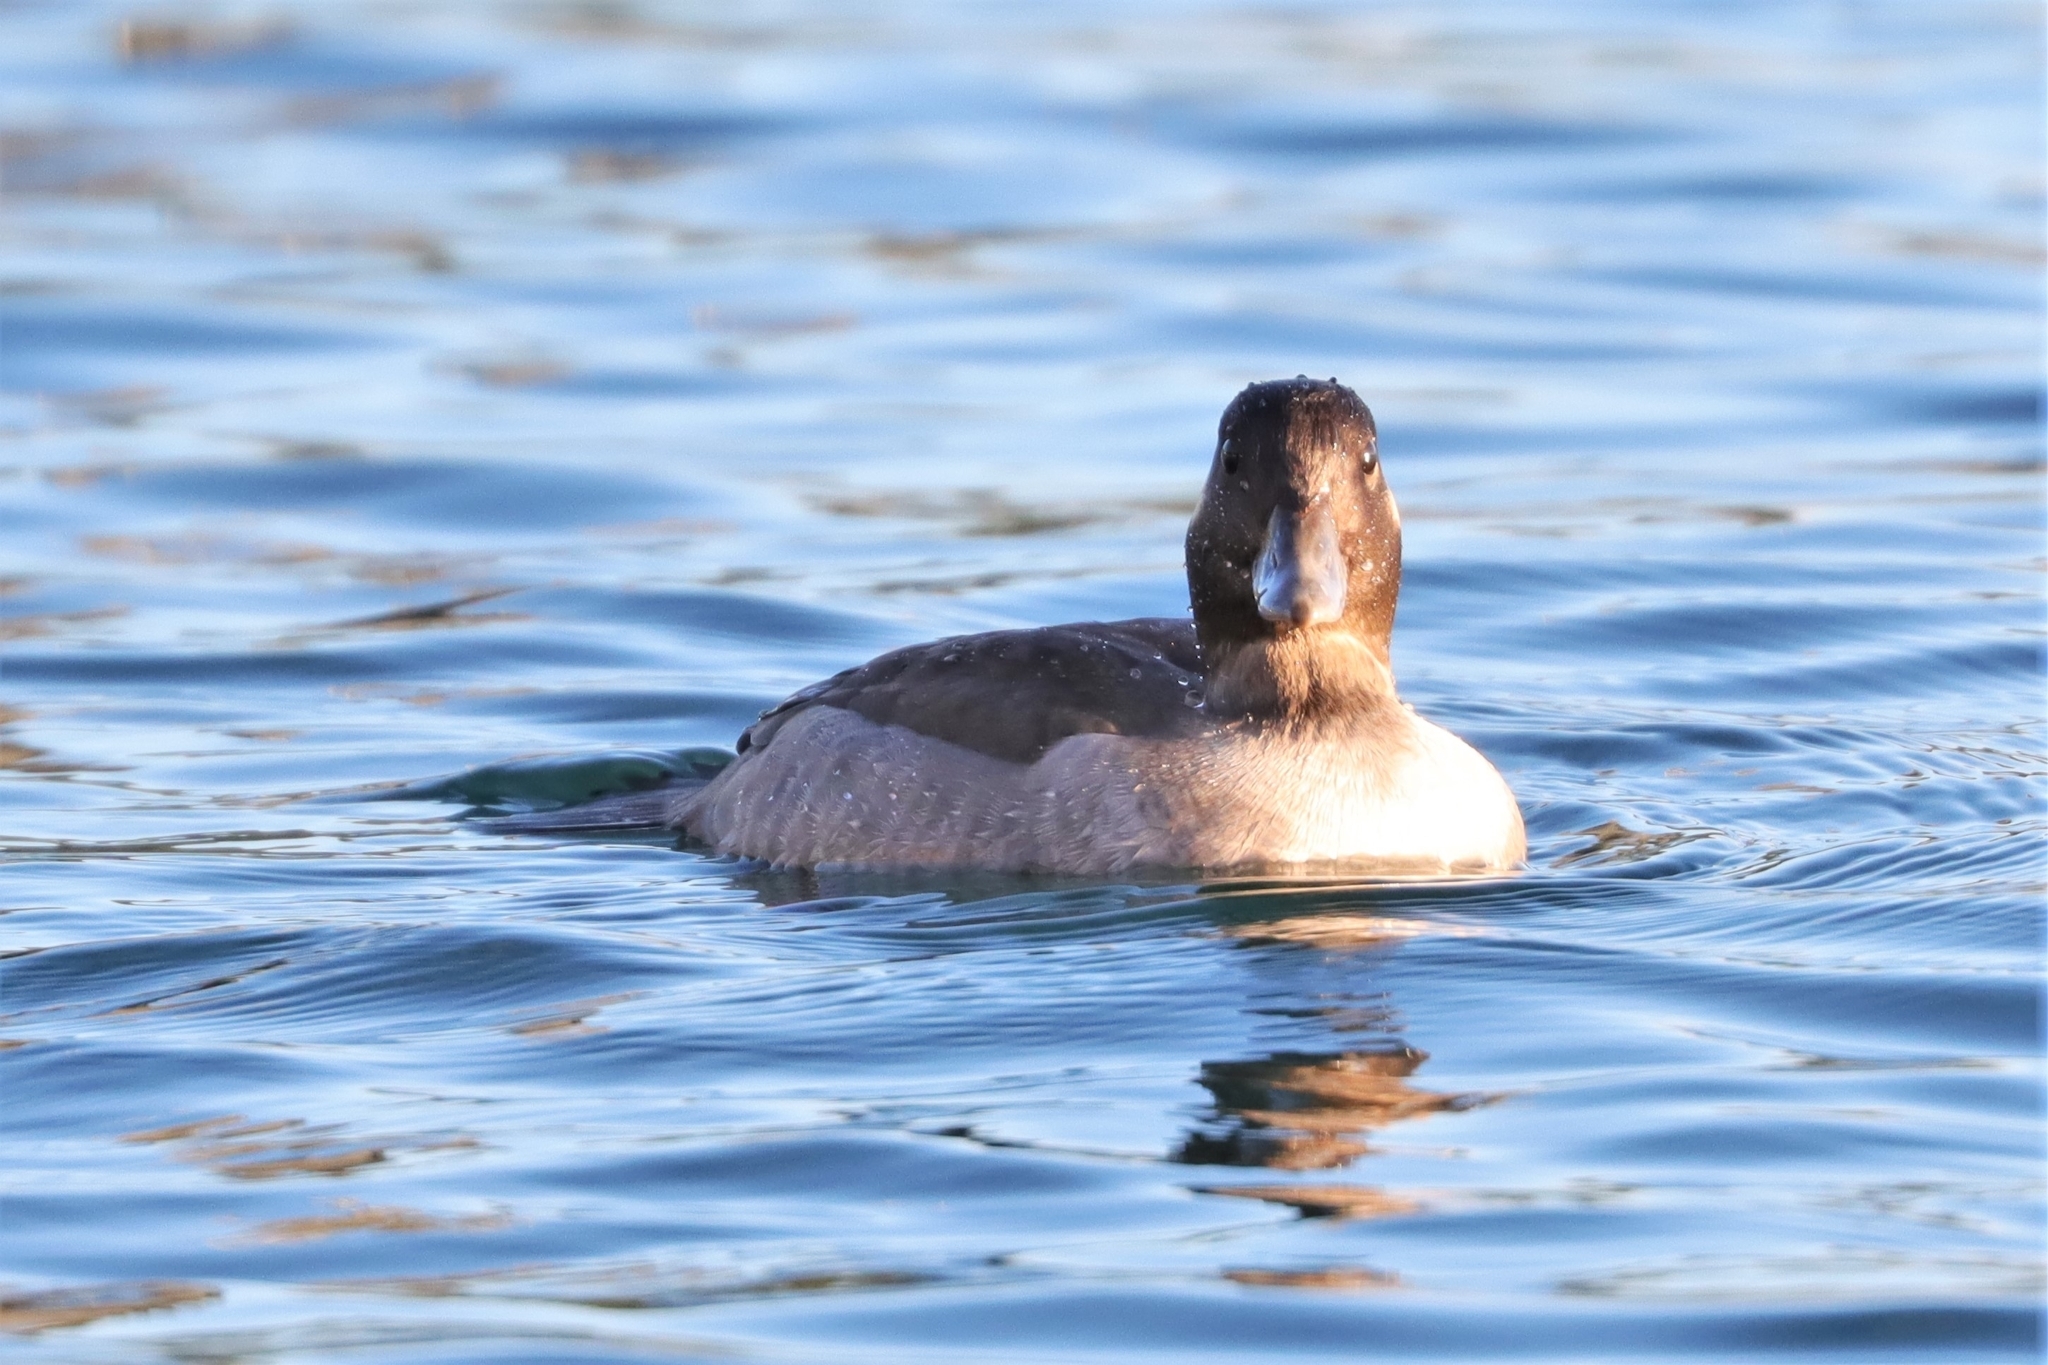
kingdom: Animalia
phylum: Chordata
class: Aves
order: Anseriformes
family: Anatidae
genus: Bucephala
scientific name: Bucephala albeola
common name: Bufflehead
